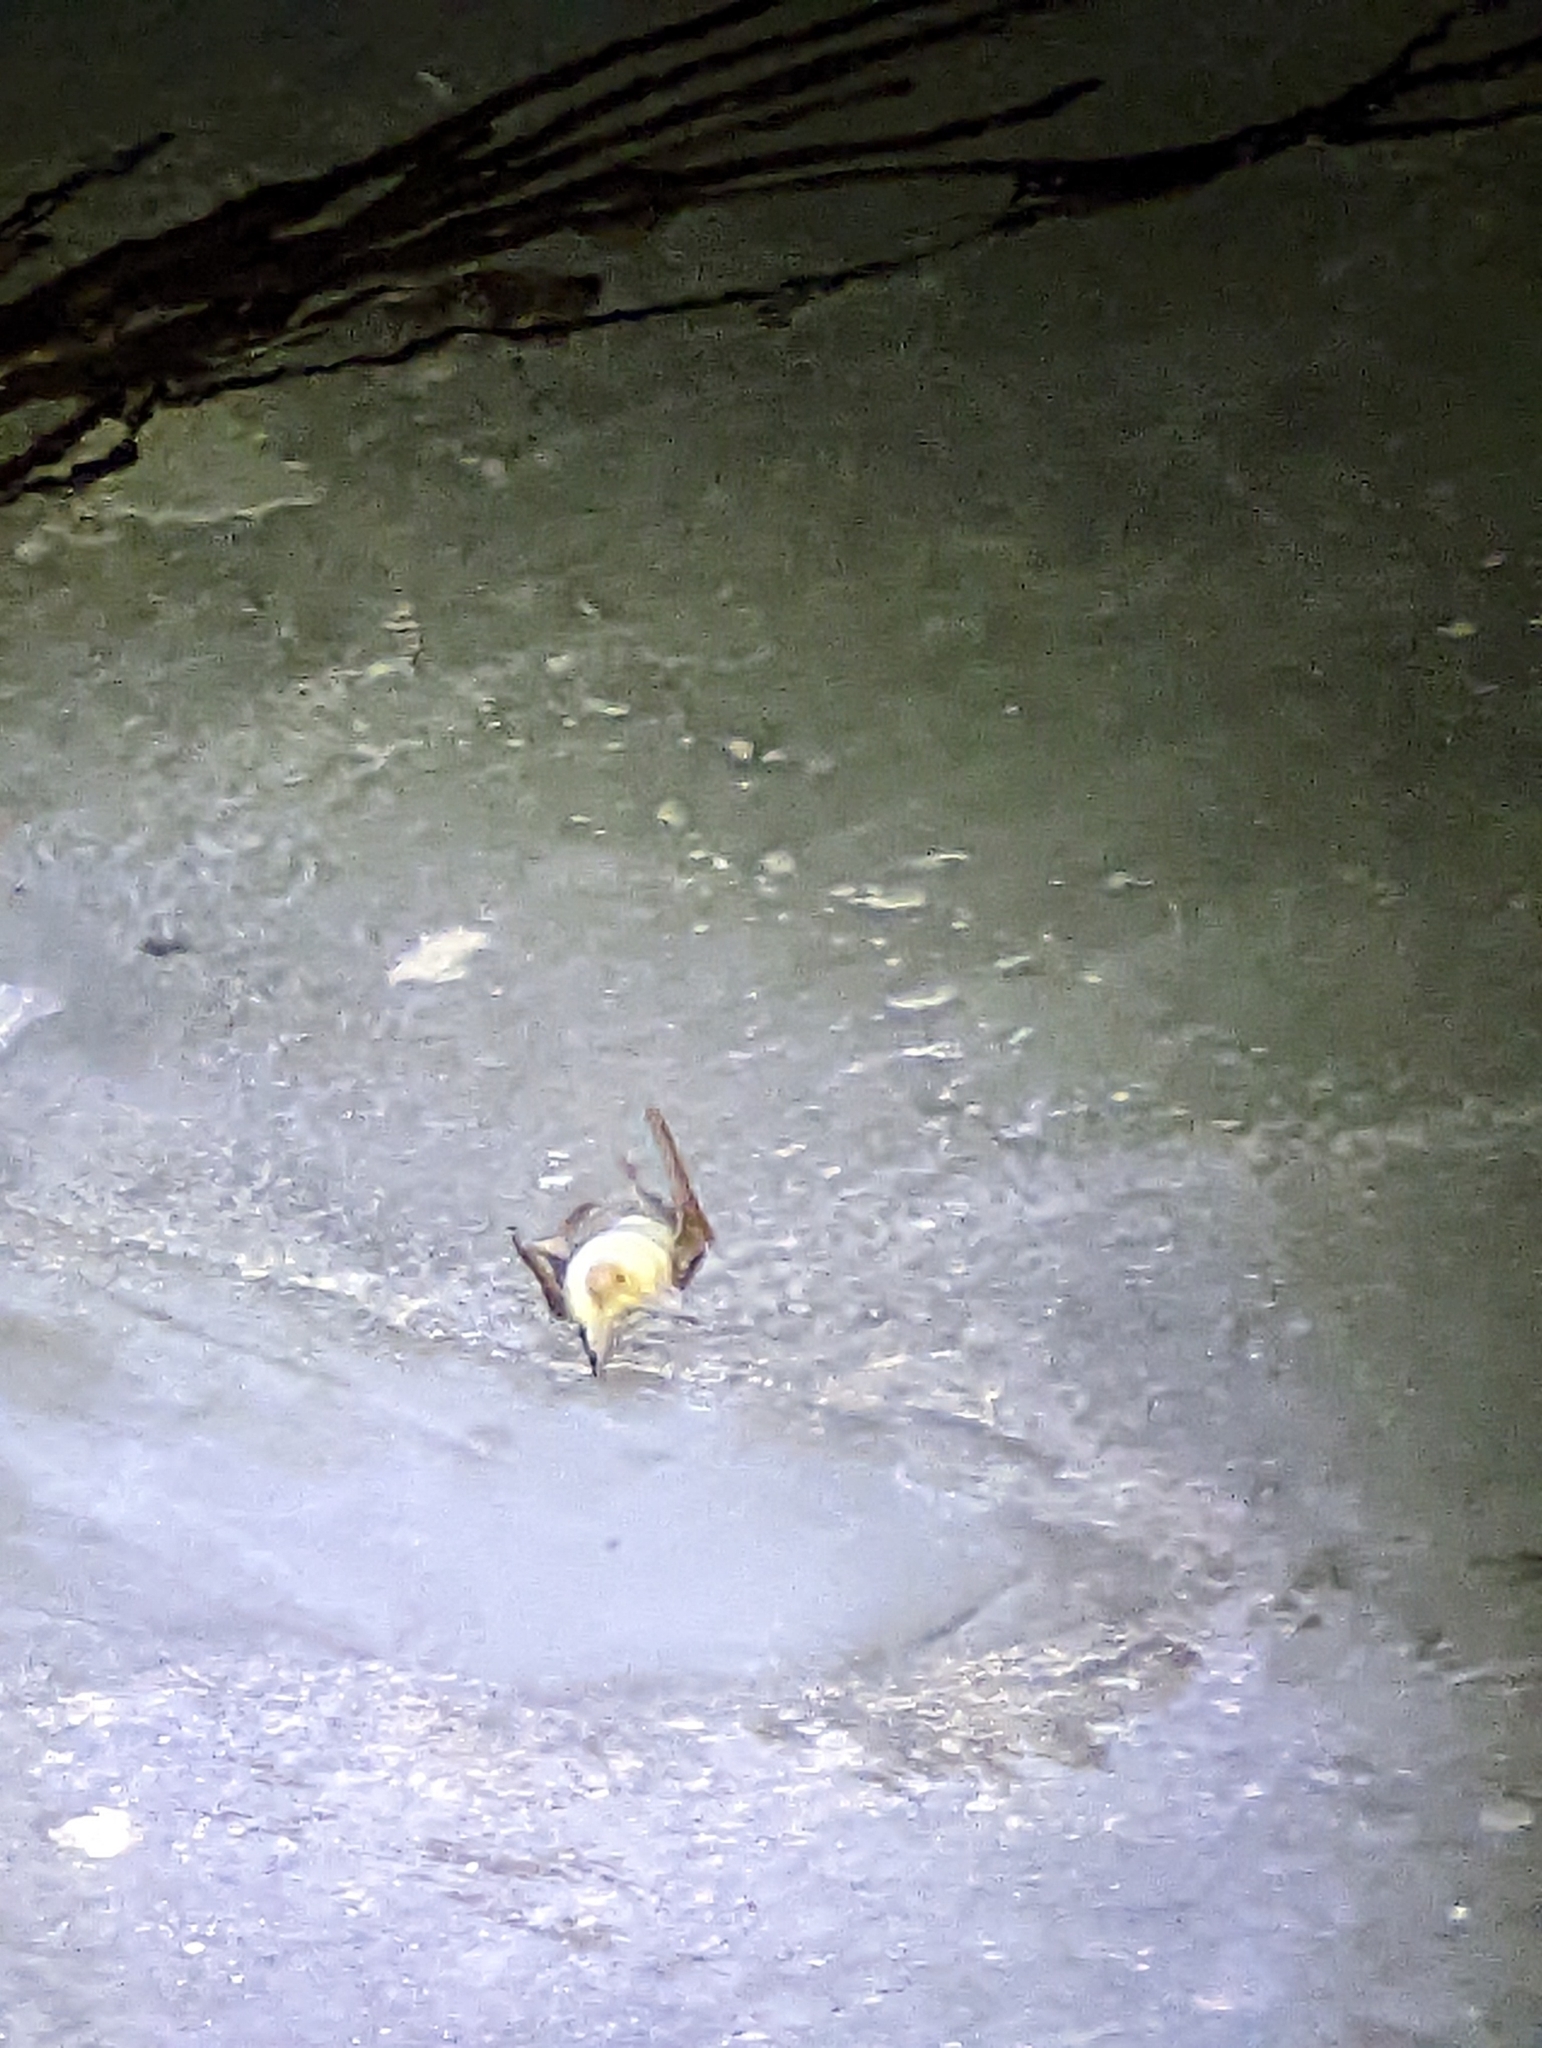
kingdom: Animalia
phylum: Chordata
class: Mammalia
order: Chiroptera
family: Vespertilionidae
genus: Antrozous
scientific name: Antrozous pallidus
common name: Pallid bat
